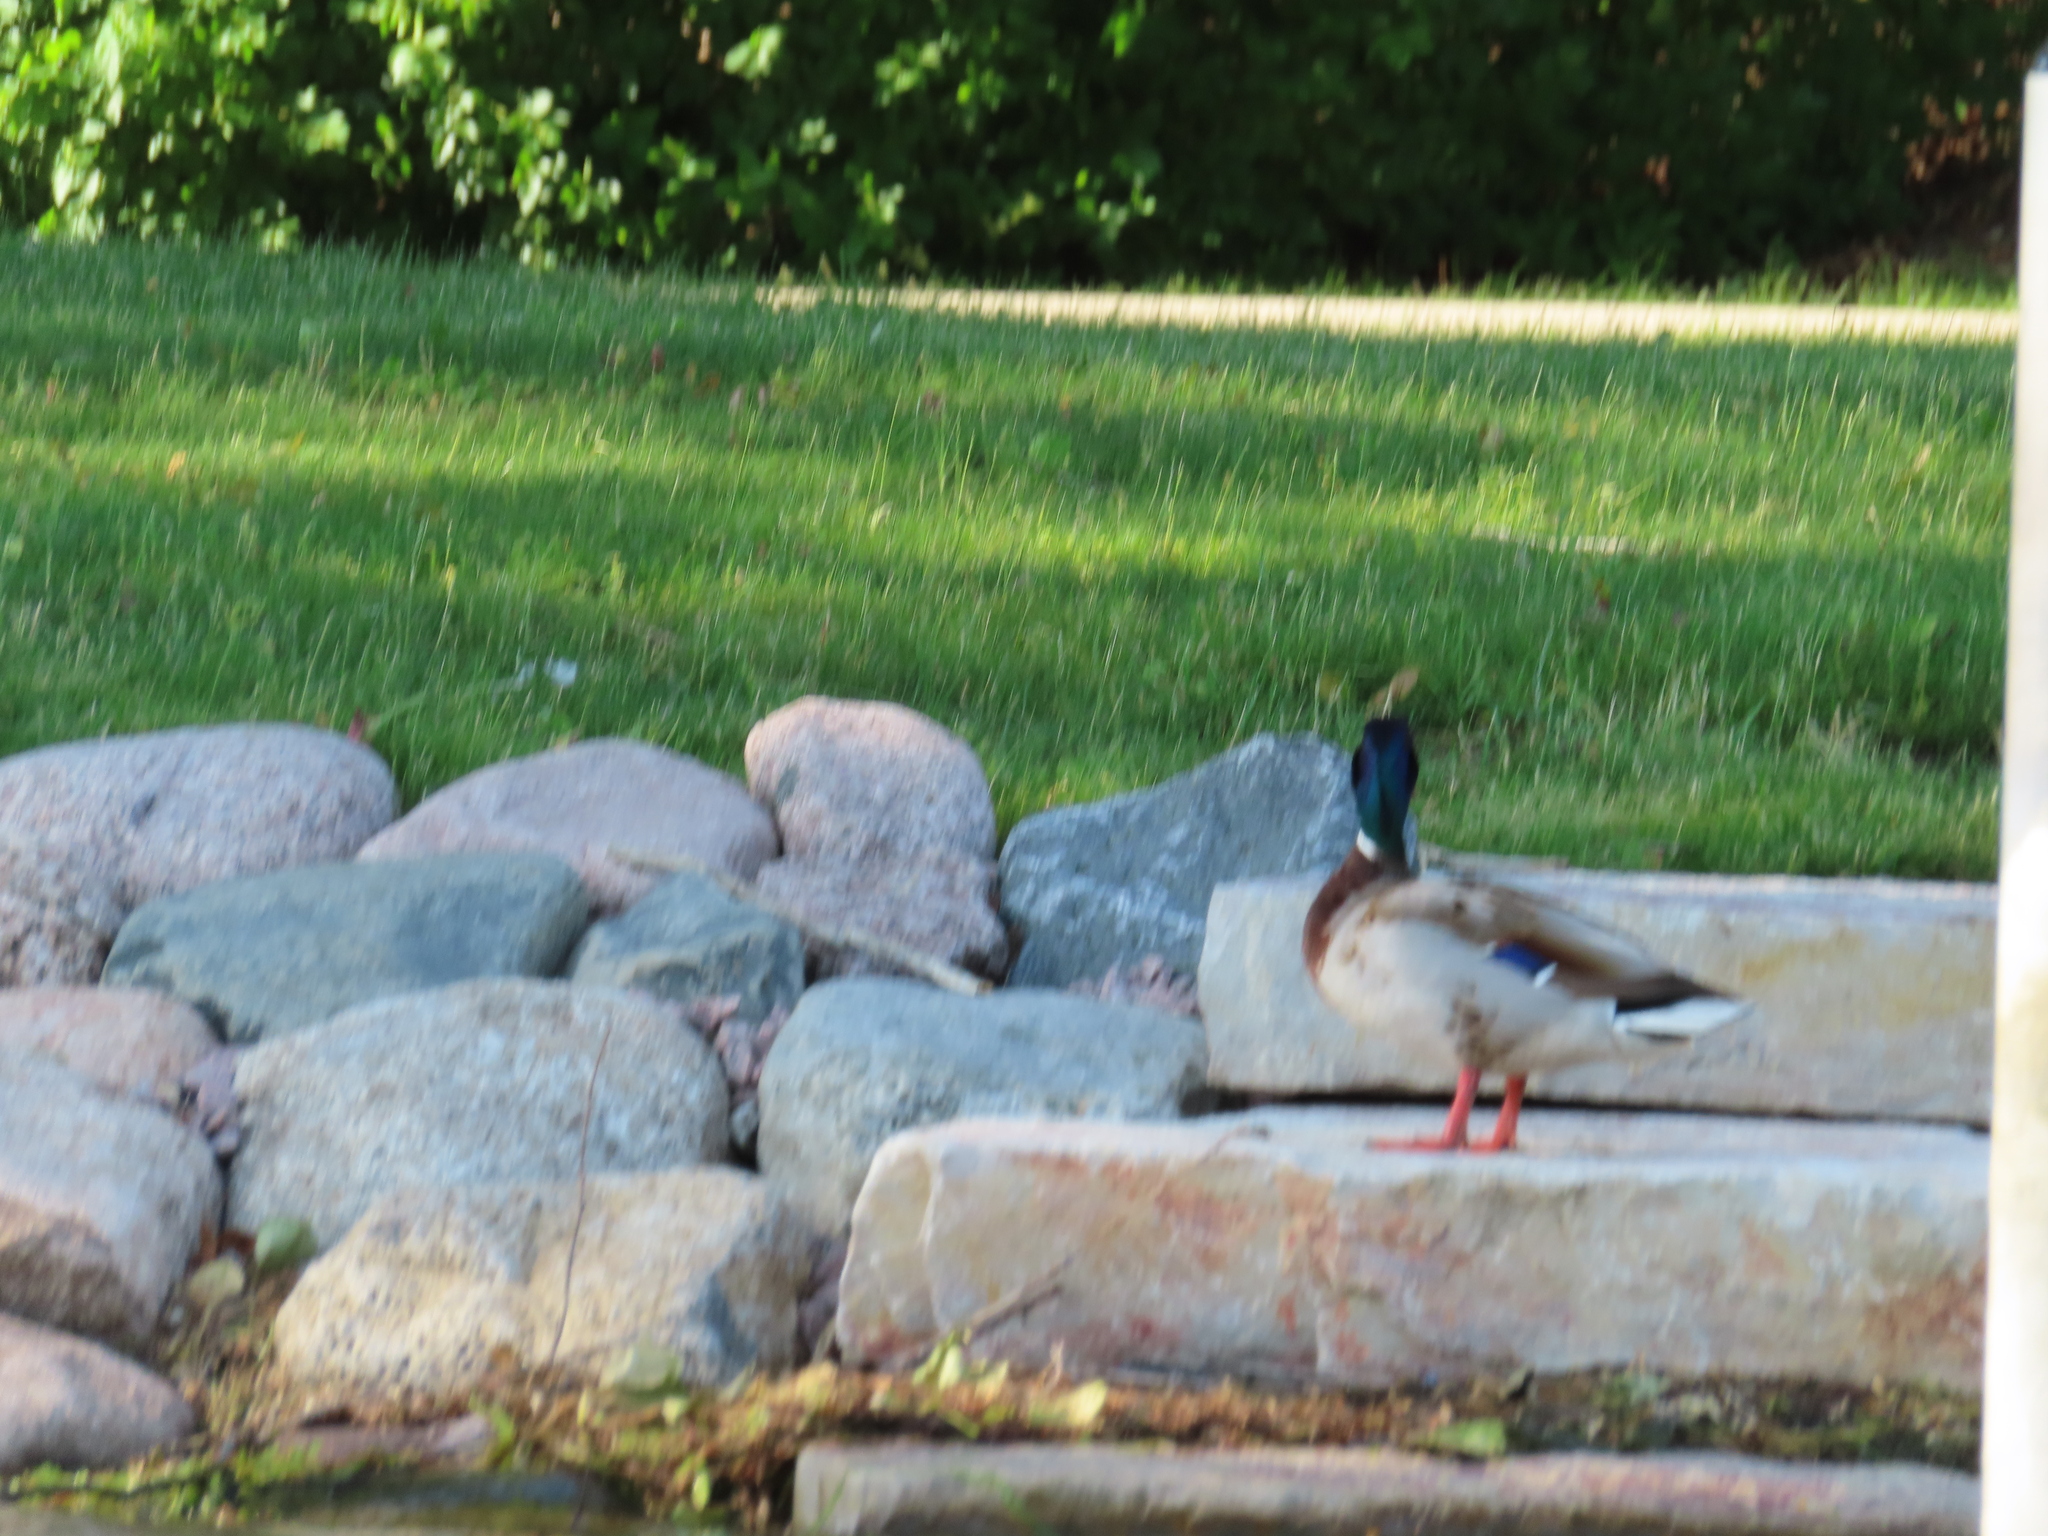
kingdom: Animalia
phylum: Chordata
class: Aves
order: Anseriformes
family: Anatidae
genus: Anas
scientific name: Anas platyrhynchos
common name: Mallard
